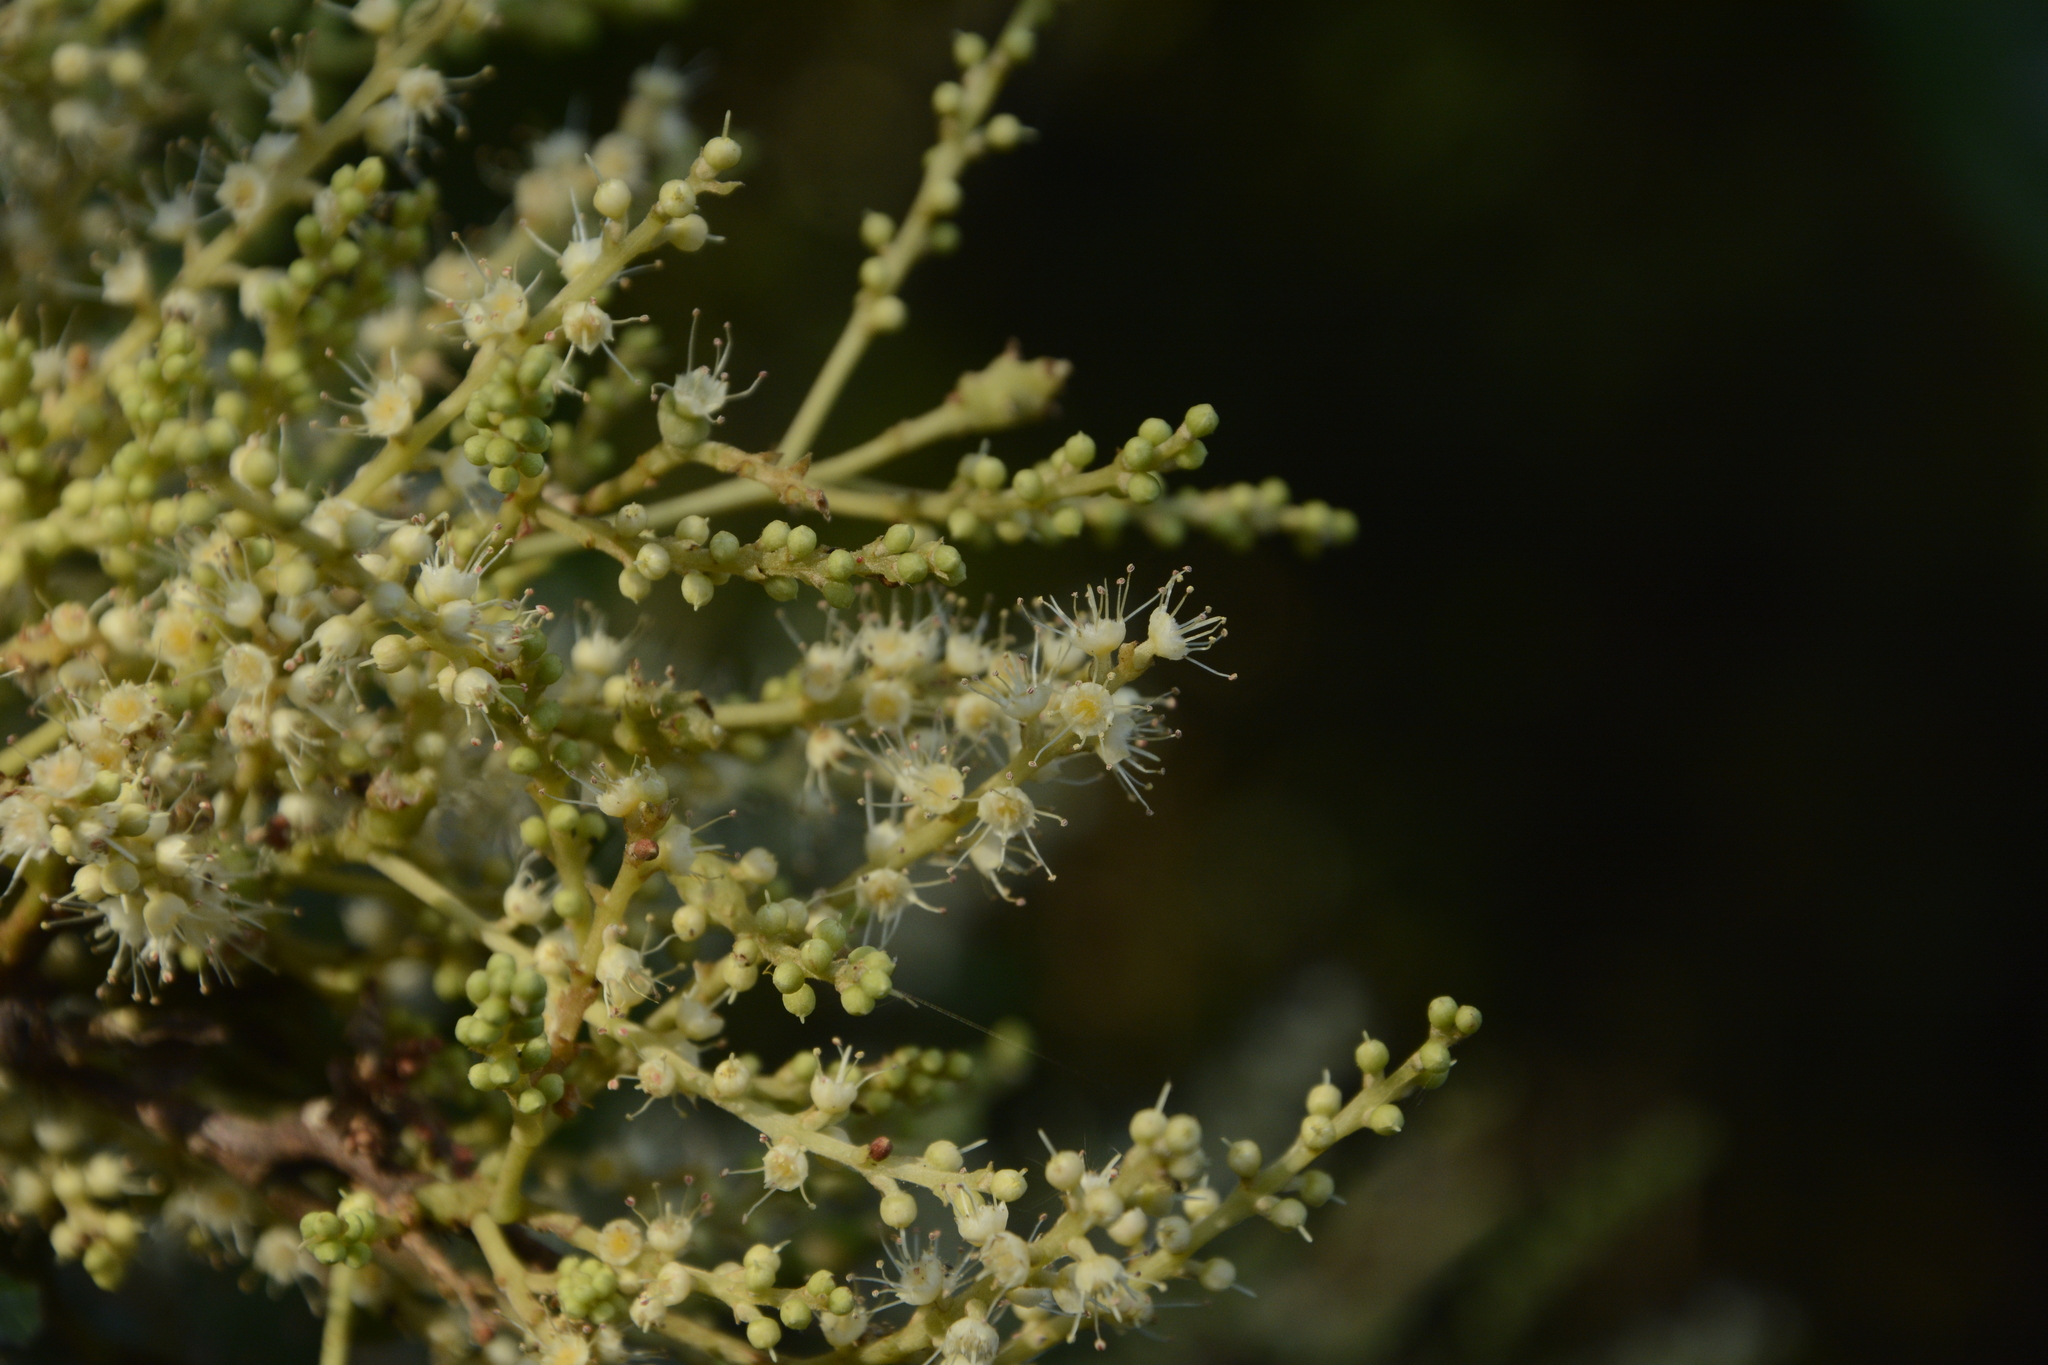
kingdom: Plantae
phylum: Tracheophyta
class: Magnoliopsida
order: Myrtales
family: Combretaceae
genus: Terminalia
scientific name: Terminalia paniculata
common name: Flowering murdah
